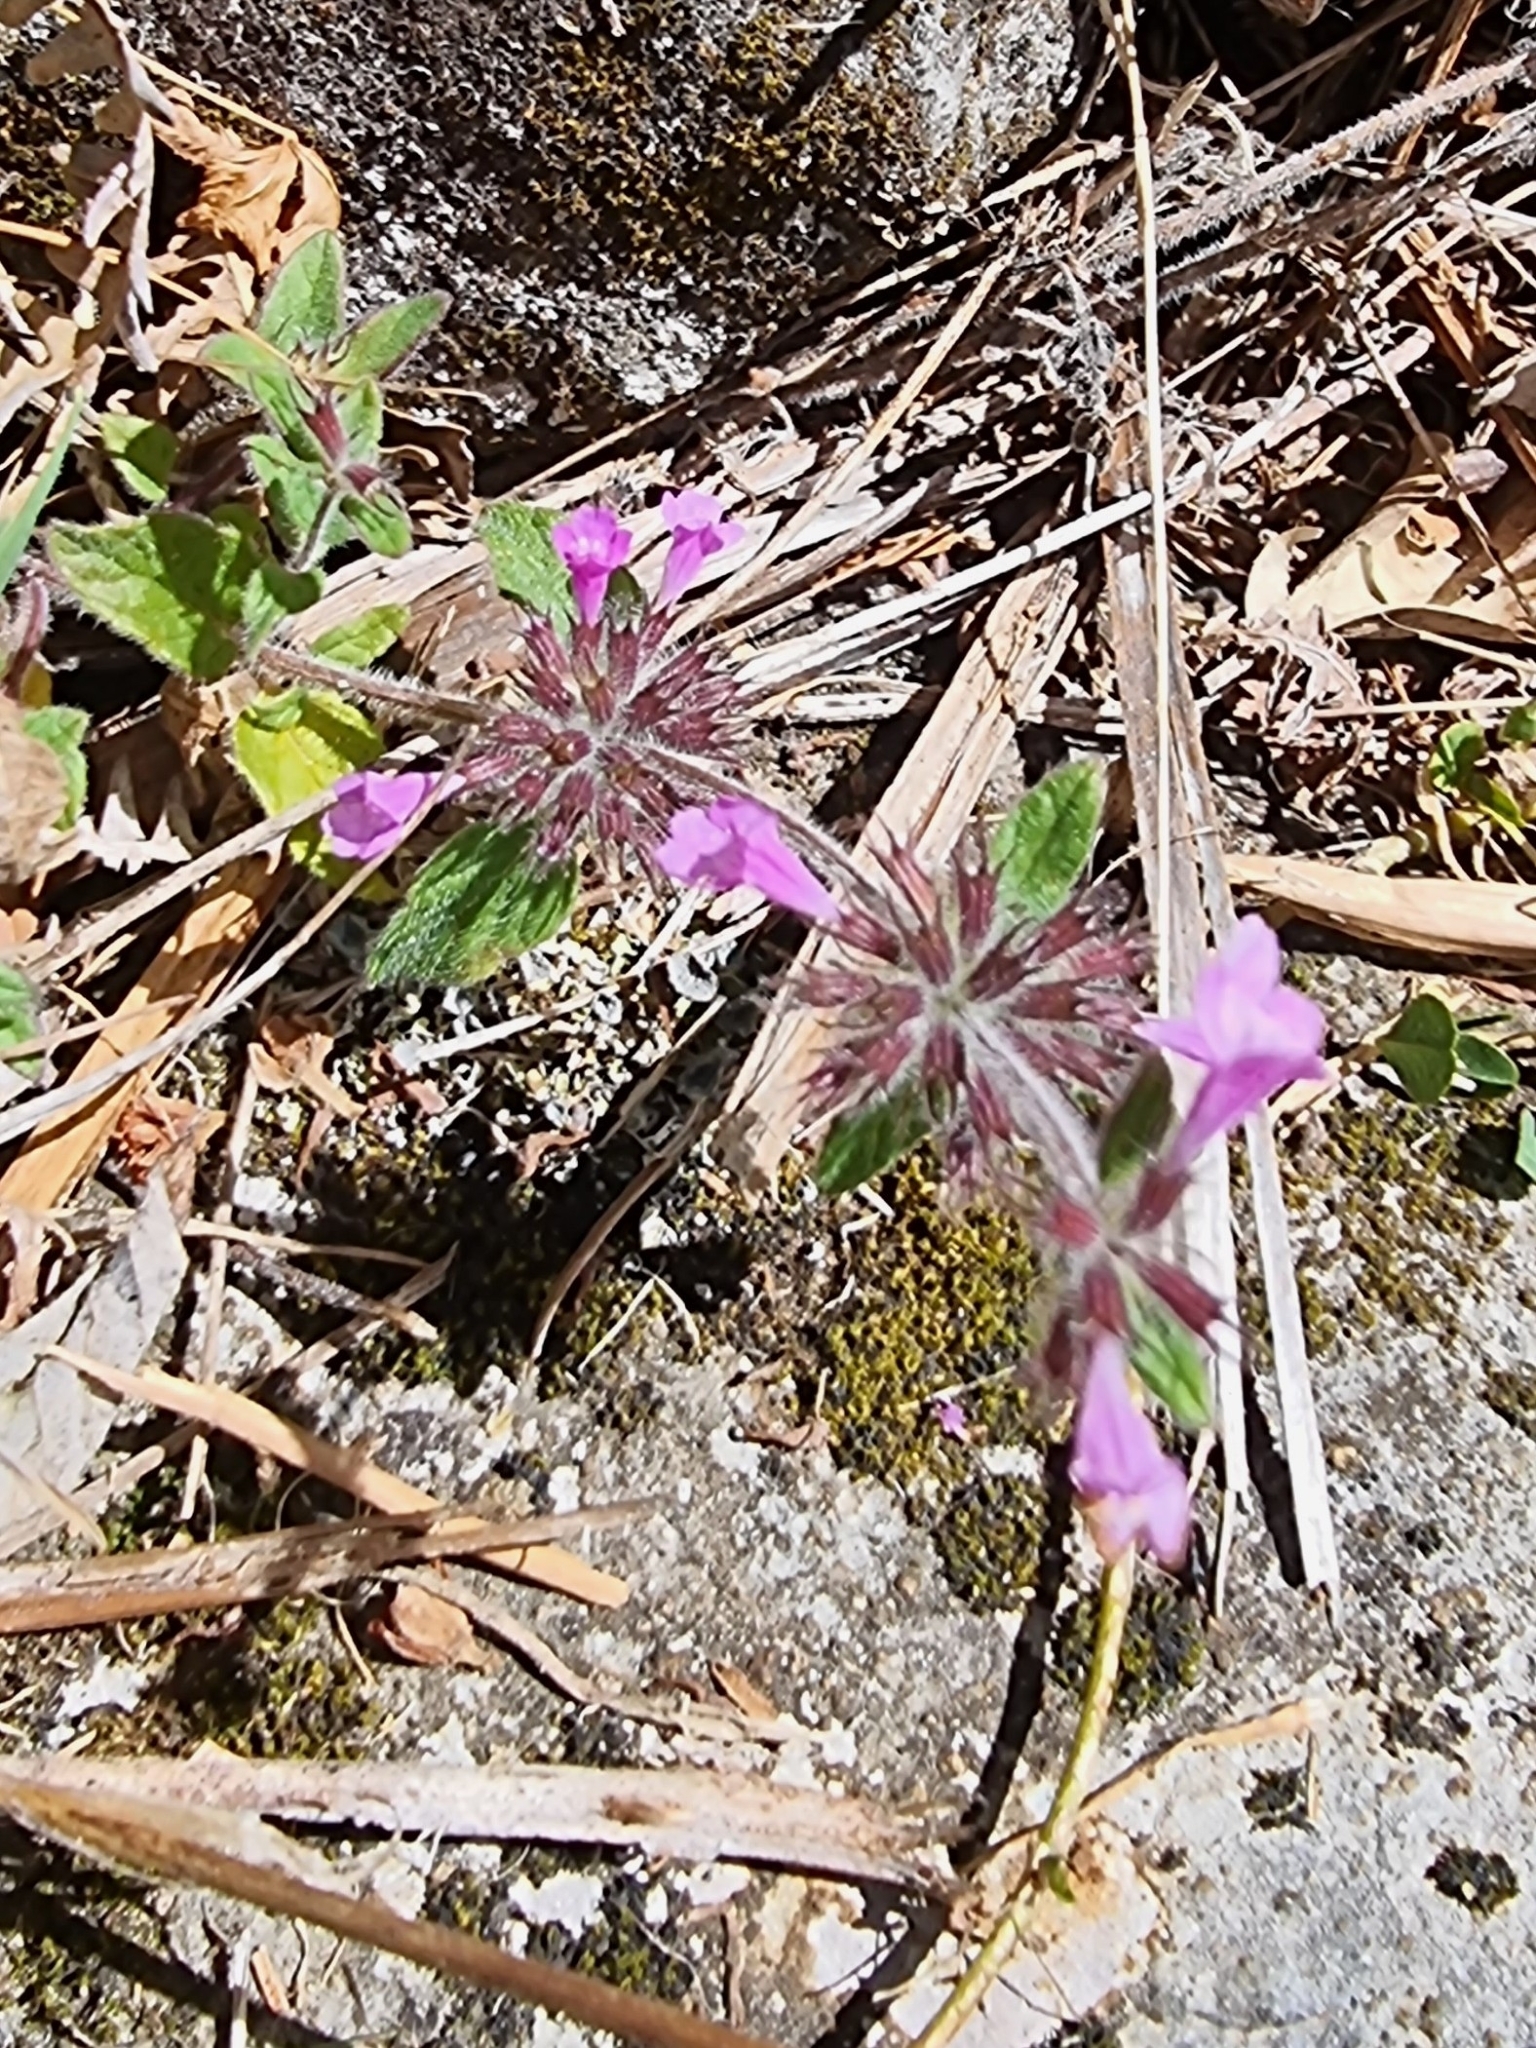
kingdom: Plantae
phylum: Tracheophyta
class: Magnoliopsida
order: Lamiales
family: Lamiaceae
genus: Clinopodium
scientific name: Clinopodium vulgare
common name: Wild basil
